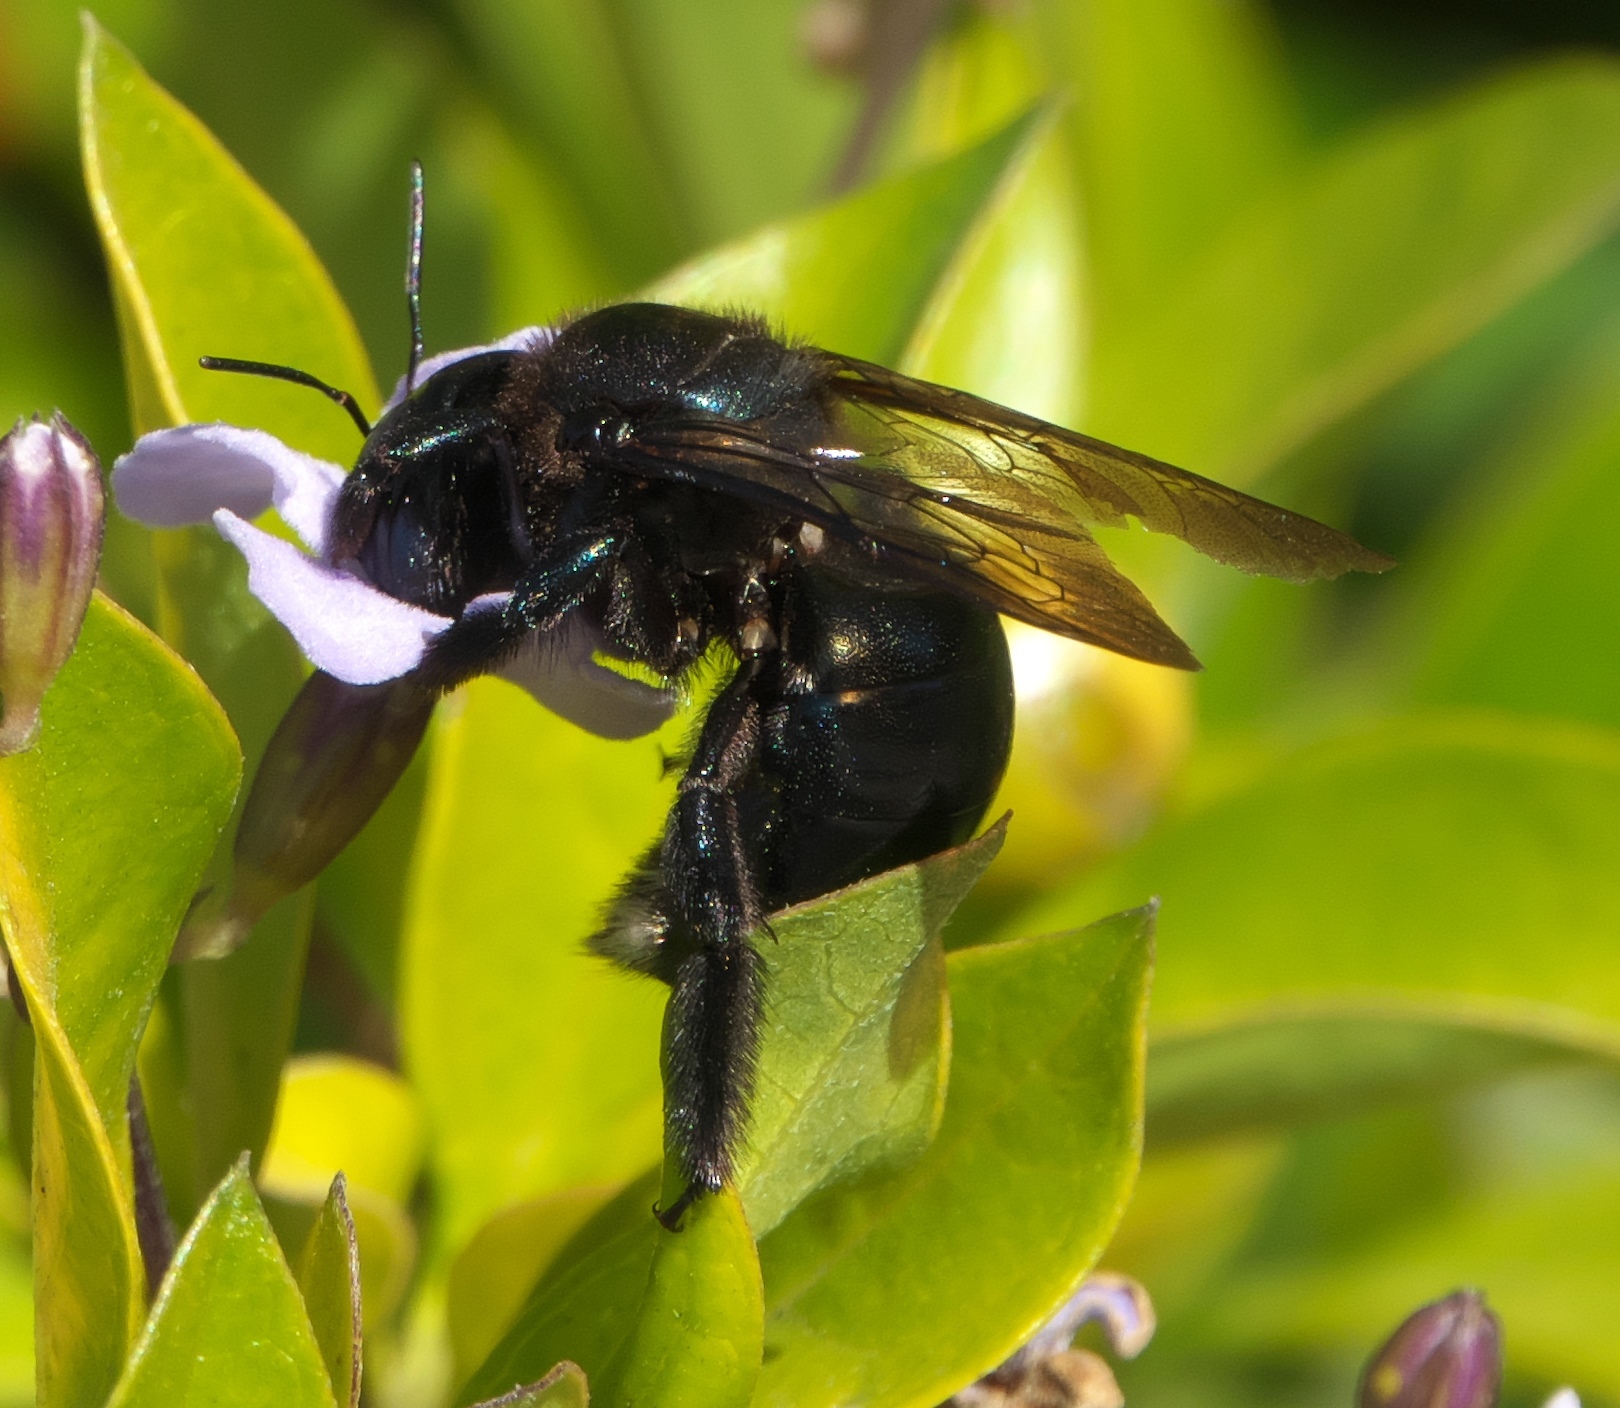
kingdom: Animalia
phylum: Arthropoda
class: Insecta
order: Hymenoptera
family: Apidae
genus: Xylocopa
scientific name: Xylocopa micans
